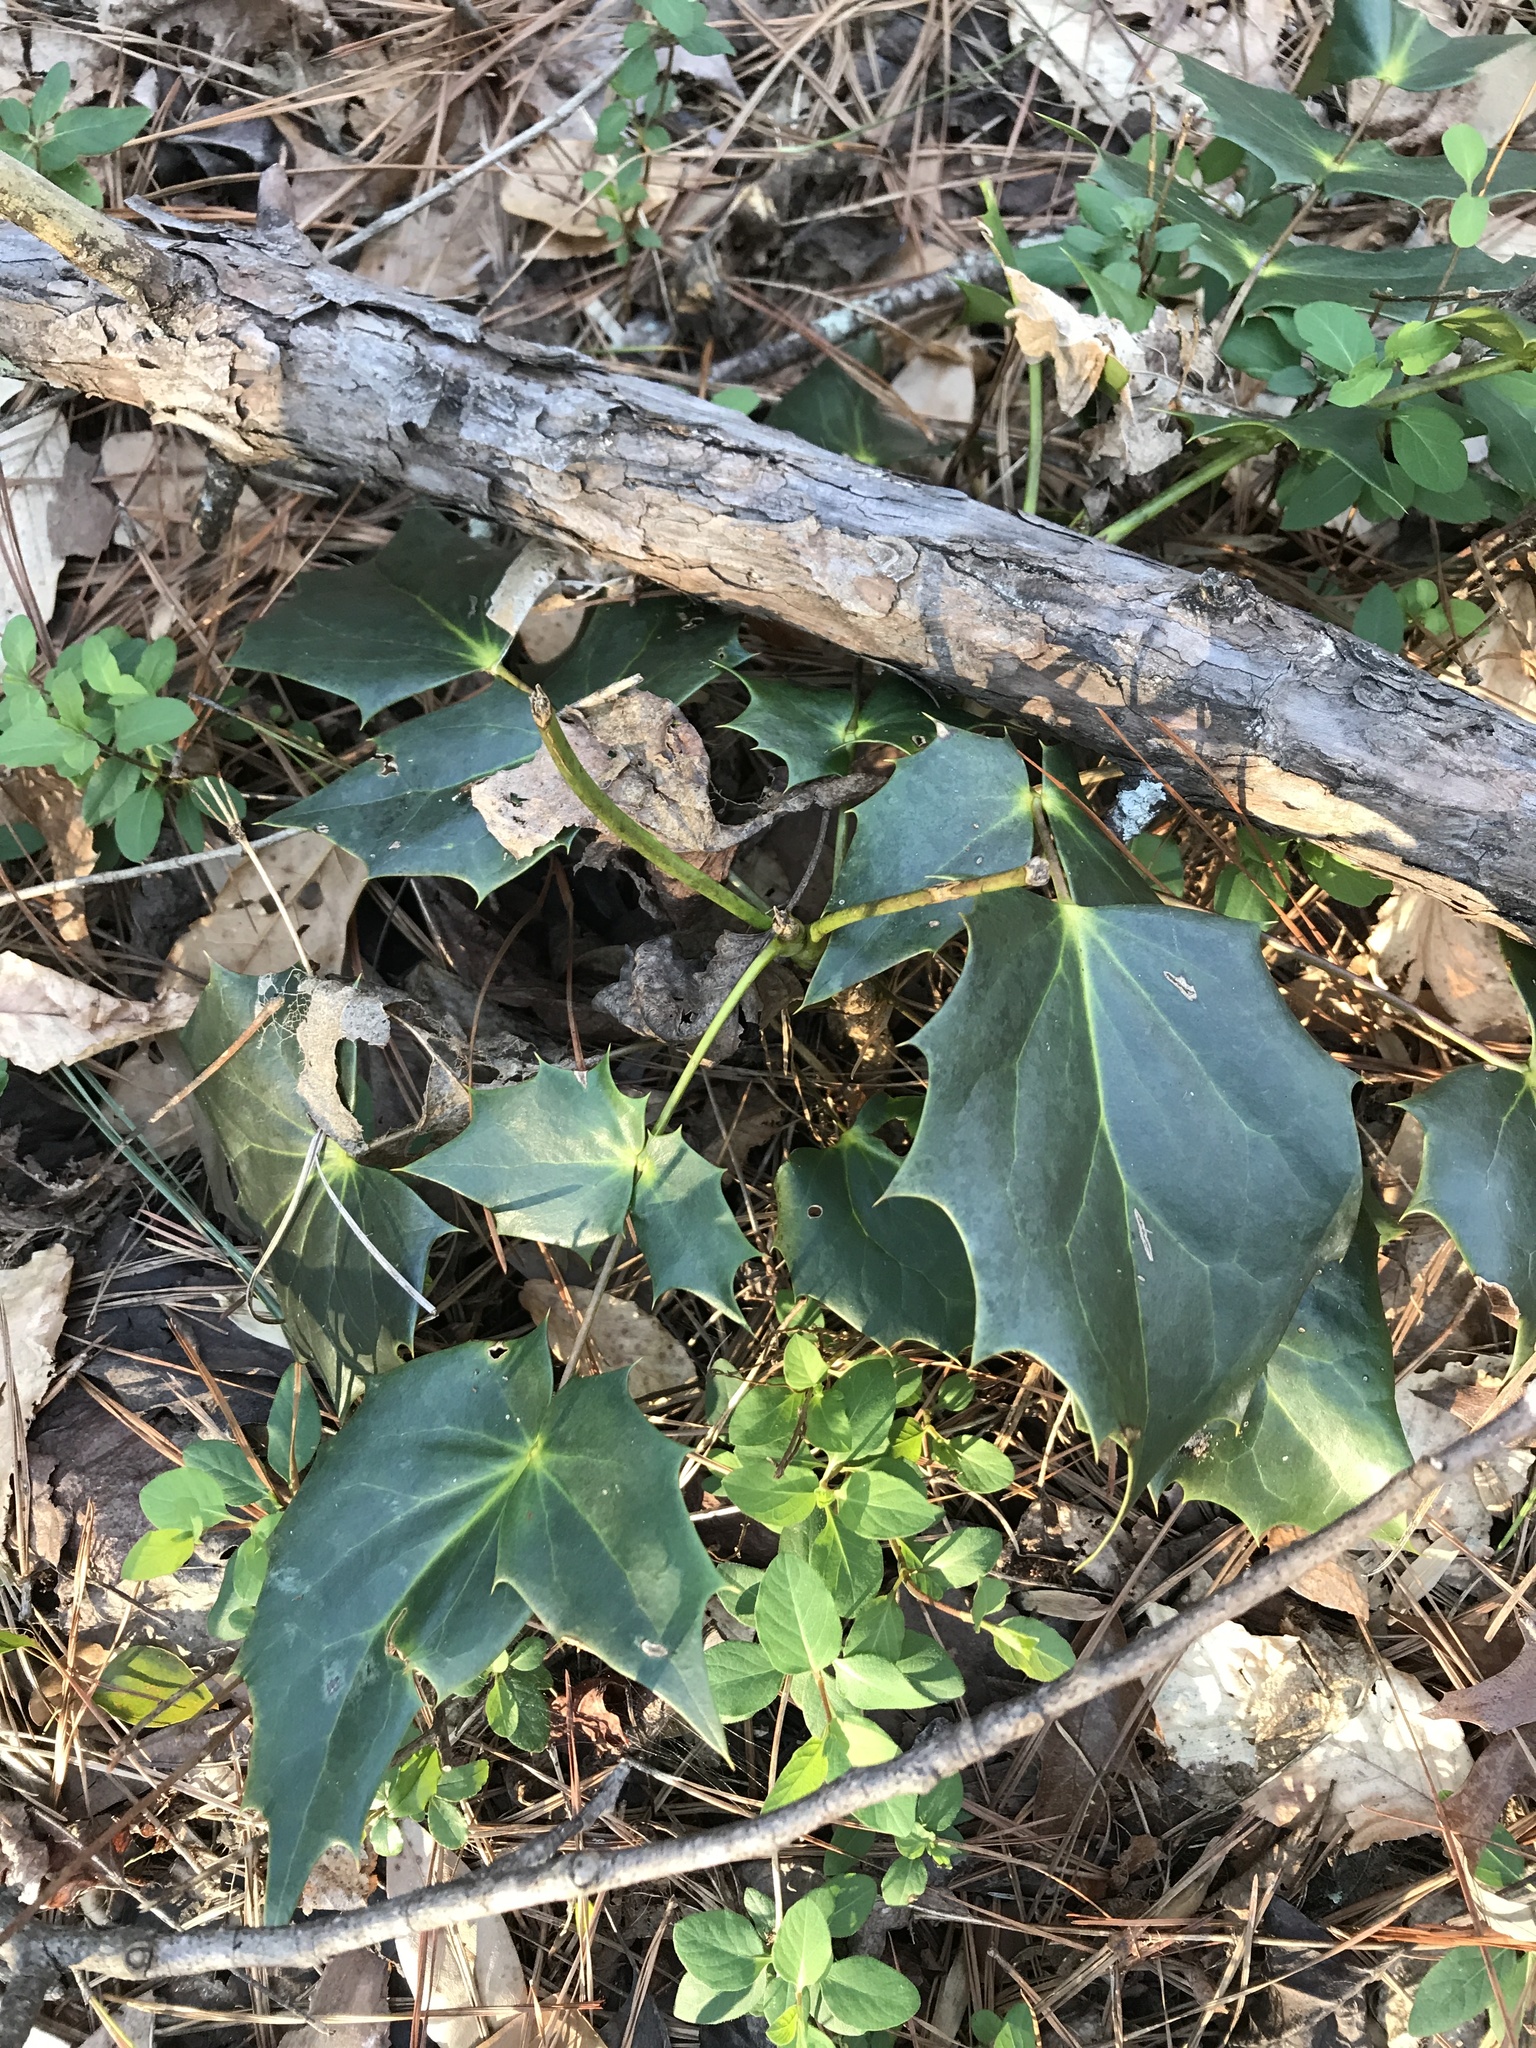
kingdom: Plantae
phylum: Tracheophyta
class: Magnoliopsida
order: Ranunculales
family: Berberidaceae
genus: Mahonia
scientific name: Mahonia bealei
